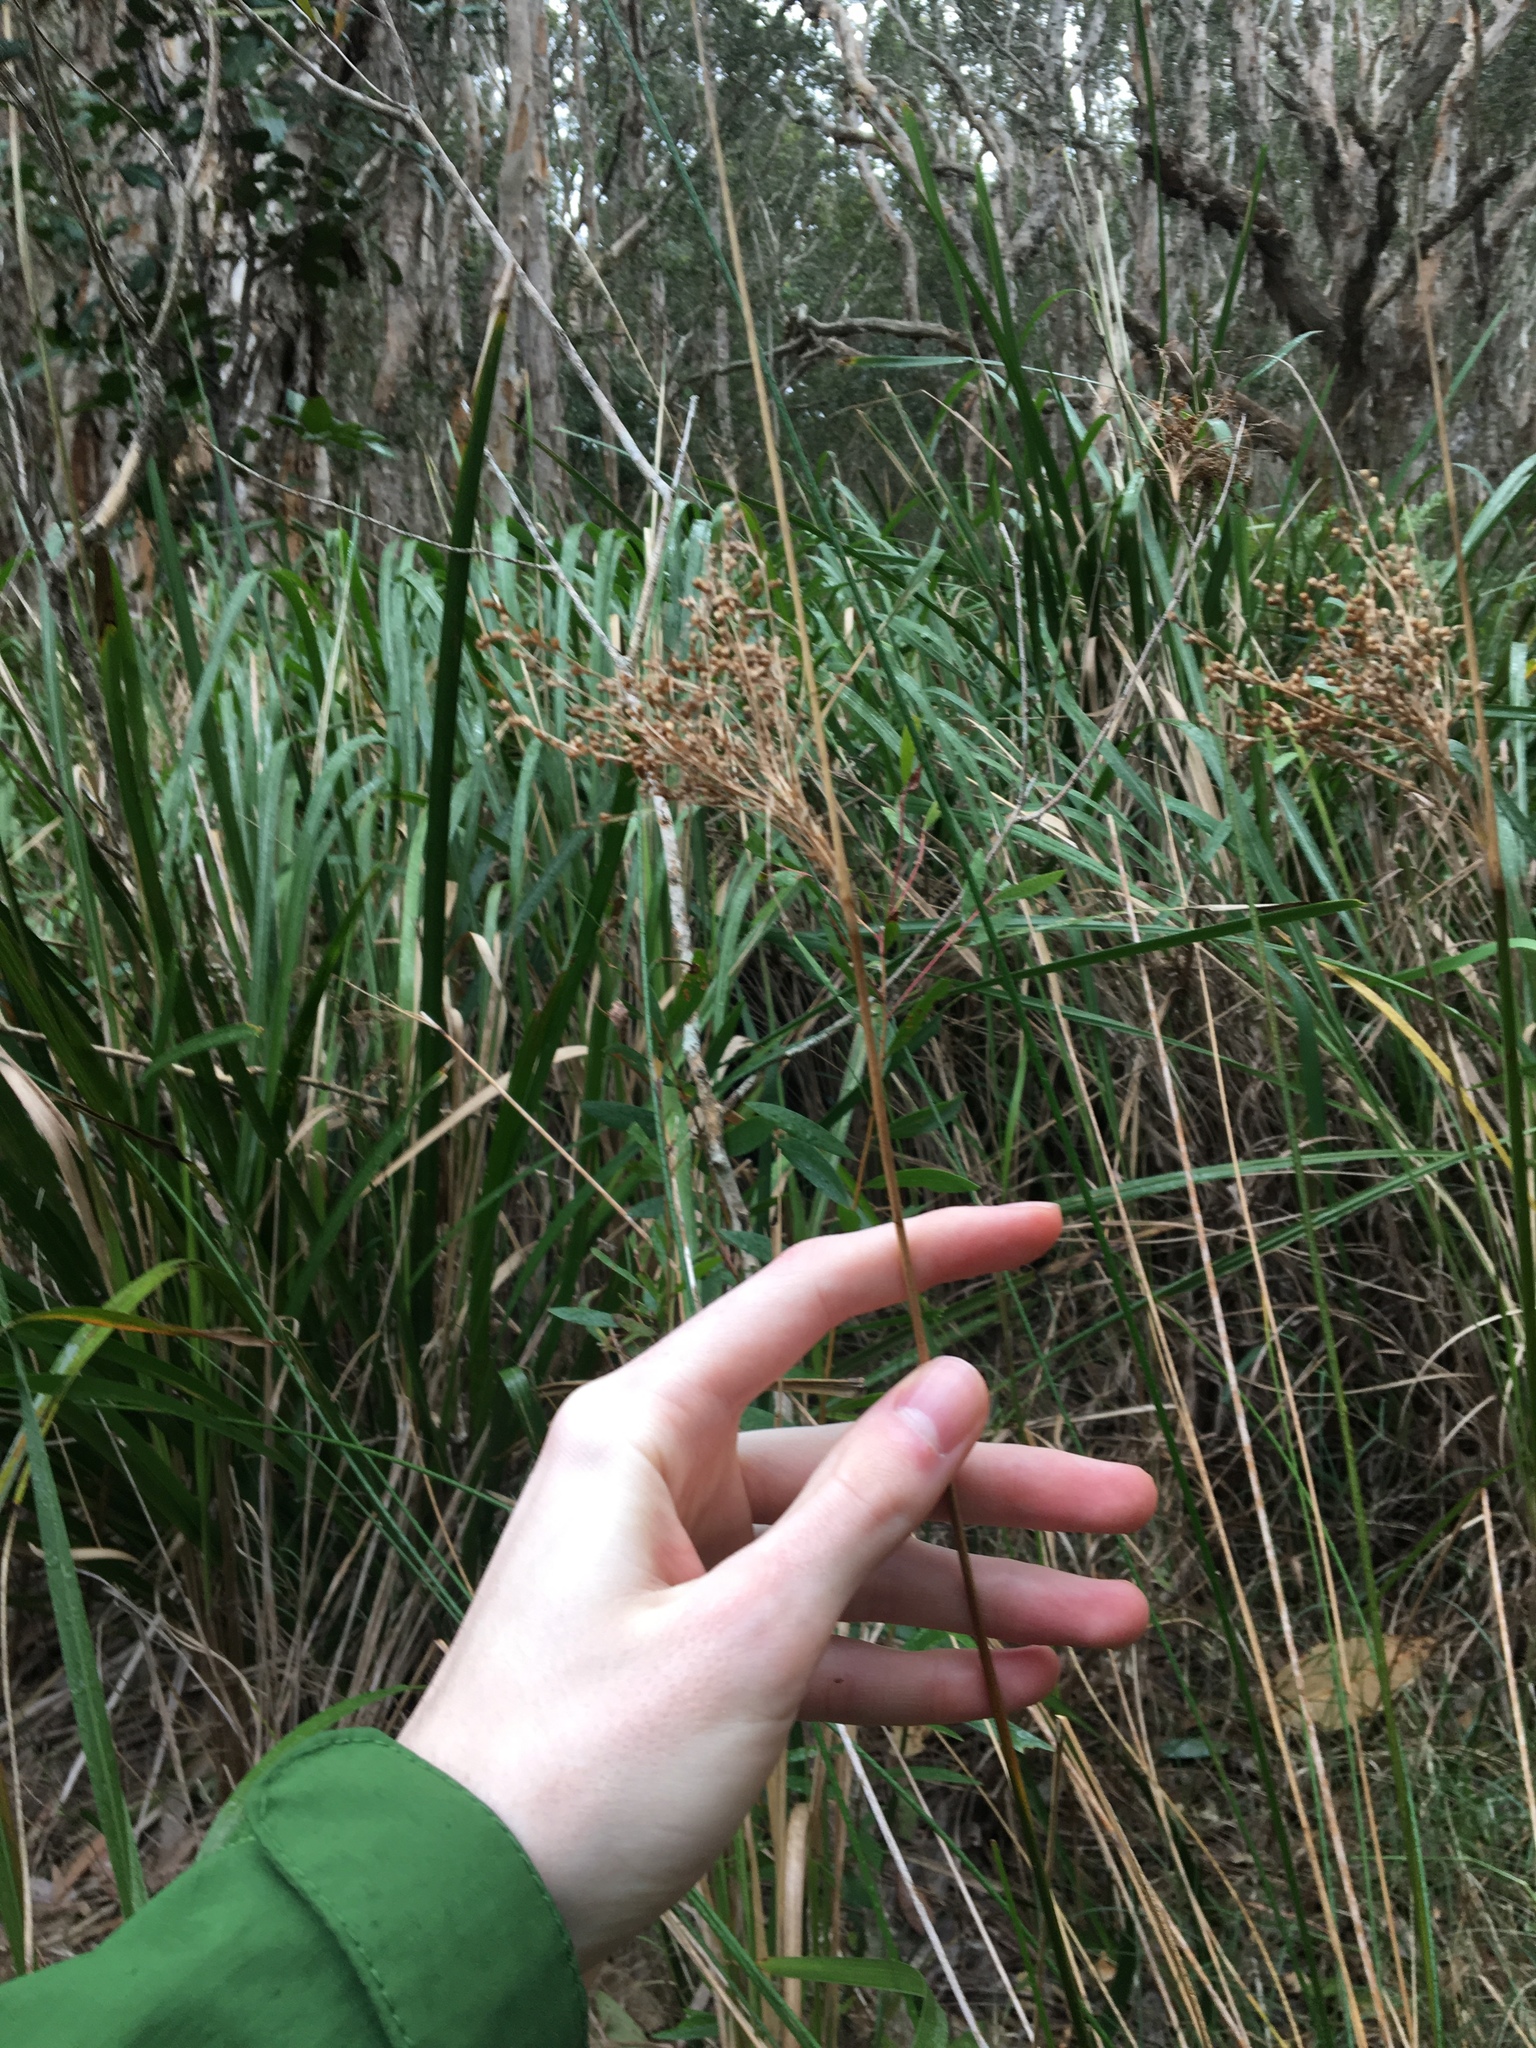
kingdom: Plantae
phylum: Tracheophyta
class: Liliopsida
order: Poales
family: Juncaceae
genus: Juncus
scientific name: Juncus mollis
